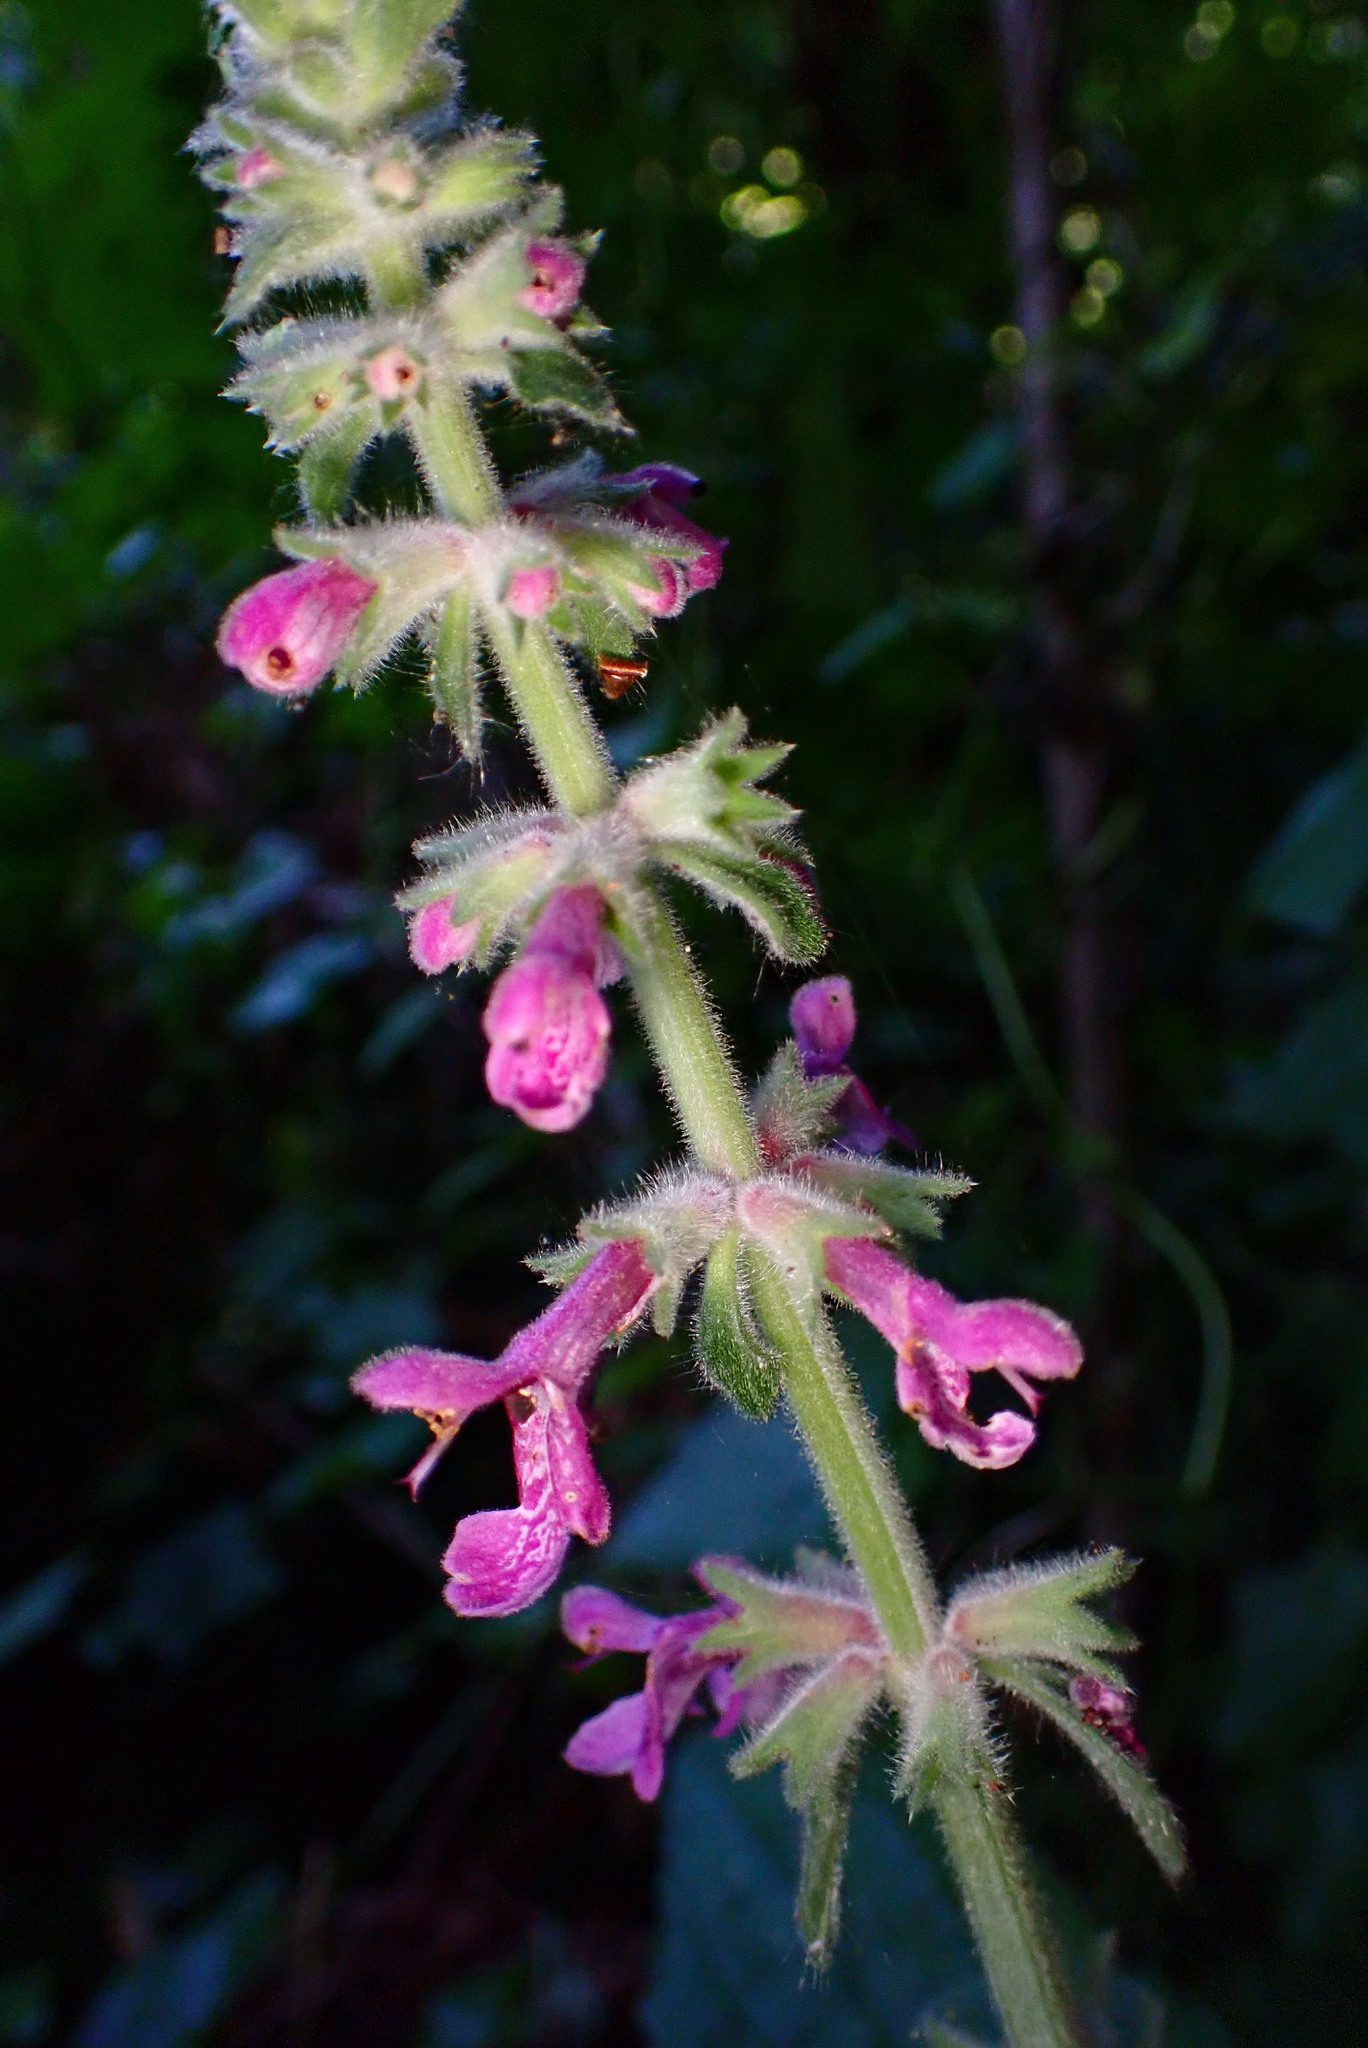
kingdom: Plantae
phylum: Tracheophyta
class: Magnoliopsida
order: Lamiales
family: Lamiaceae
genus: Stachys
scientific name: Stachys chamissonis
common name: Coastal hedge-nettle
